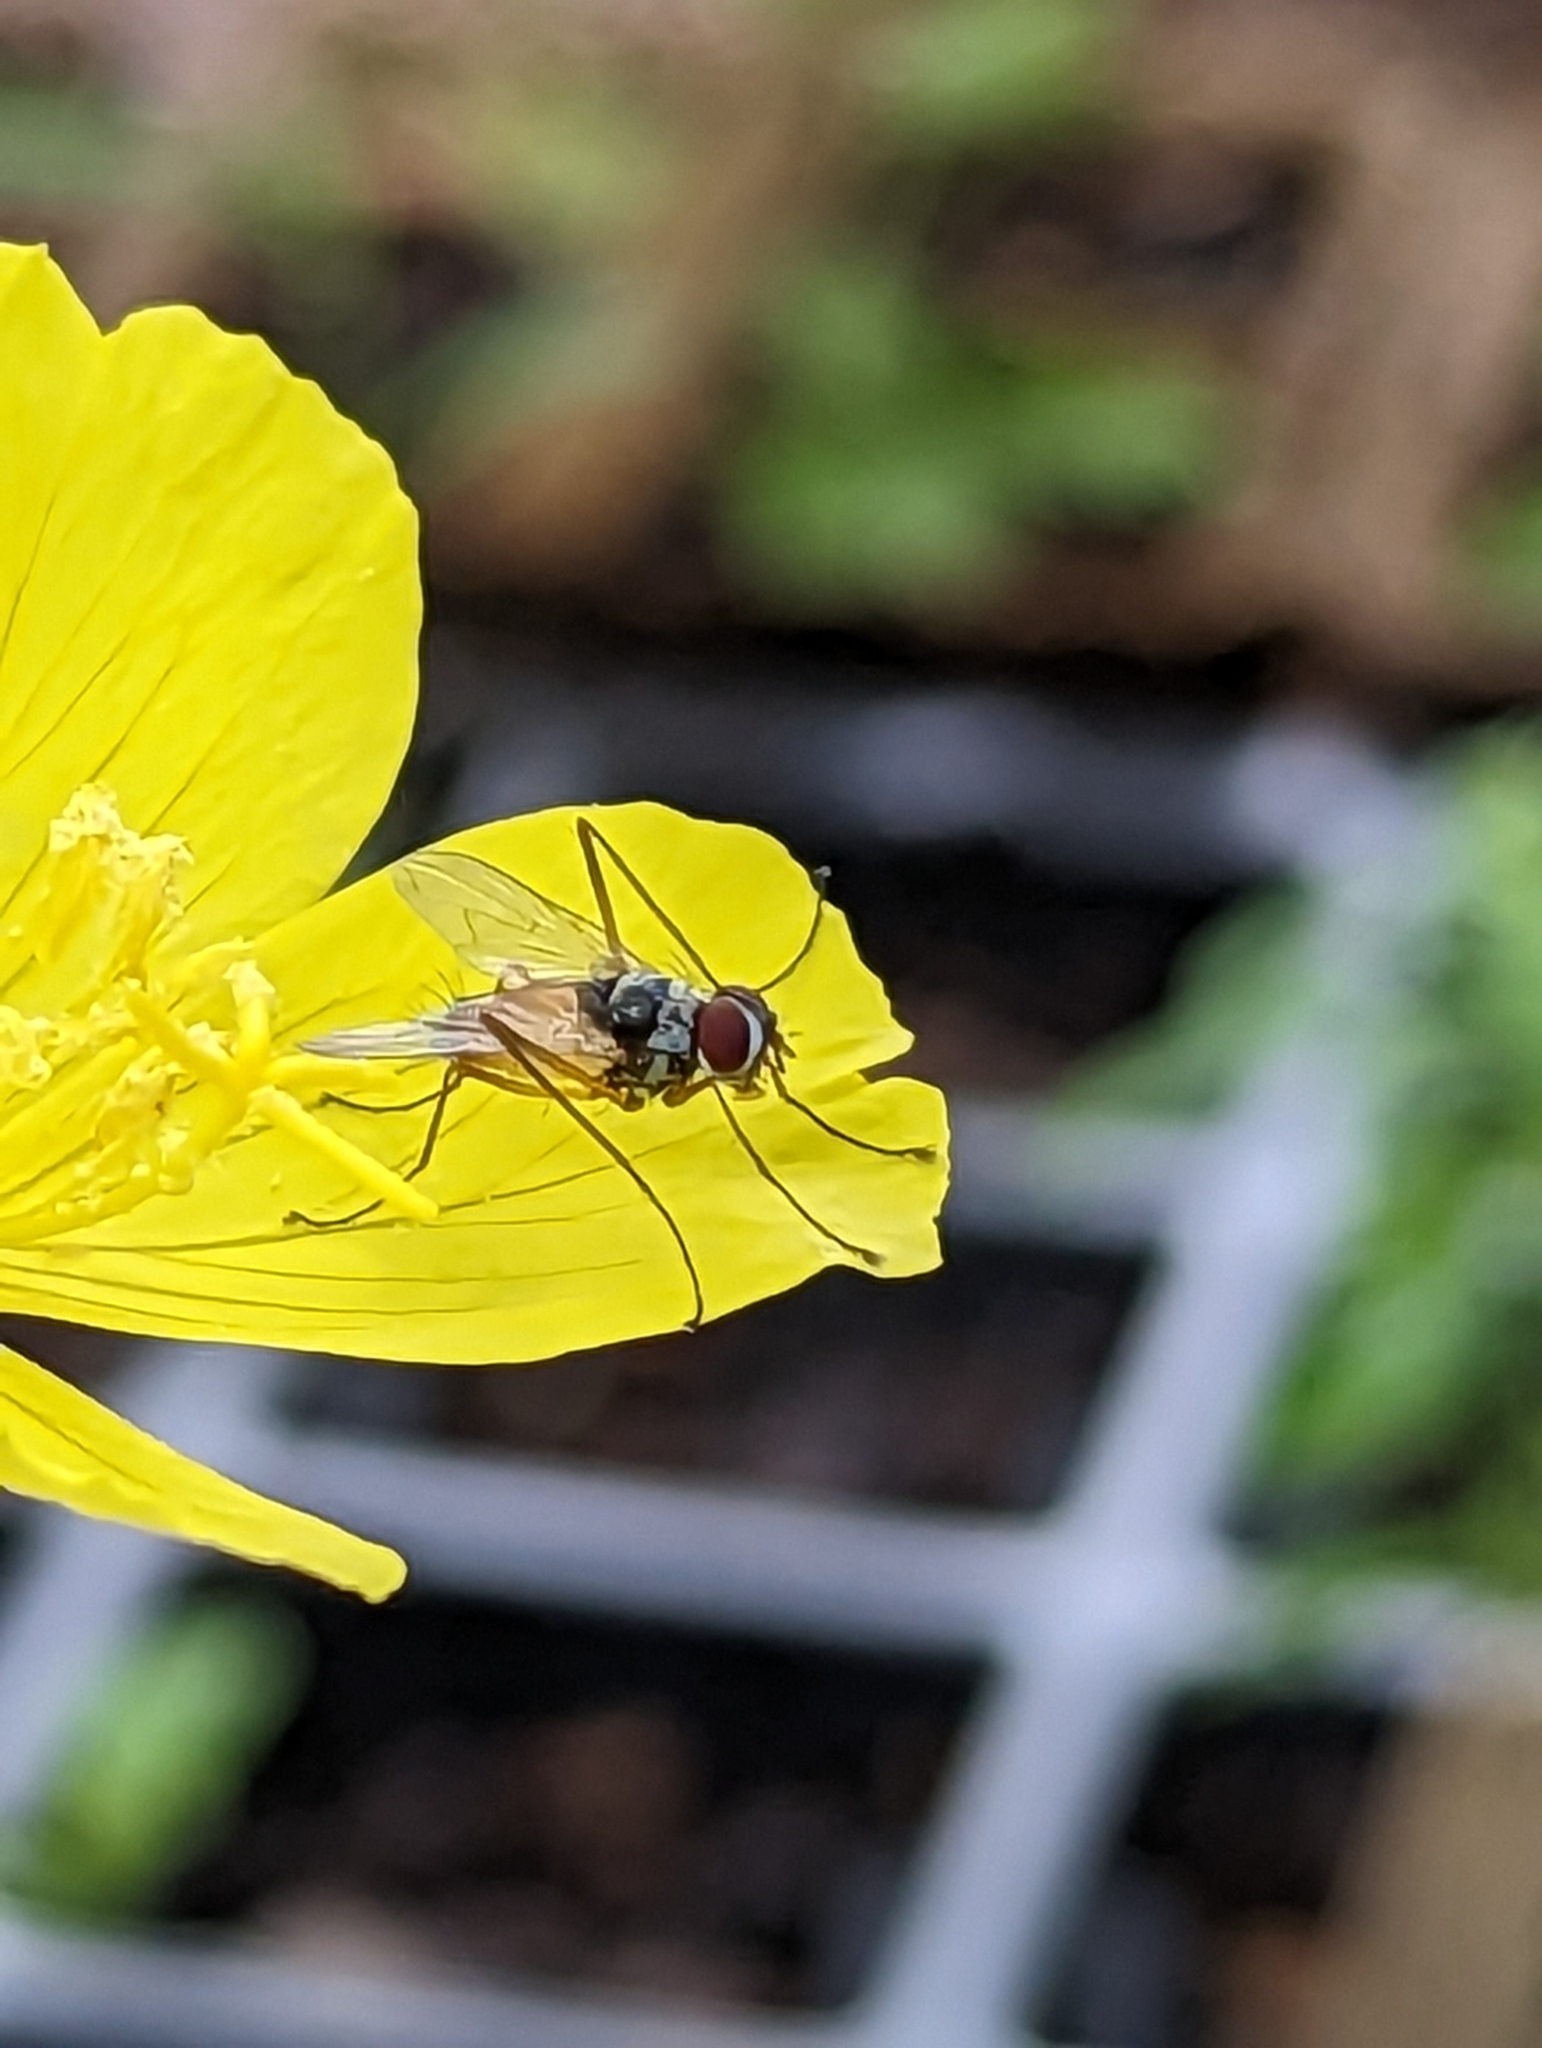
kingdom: Animalia
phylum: Arthropoda
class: Insecta
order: Diptera
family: Tachinidae
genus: Cholomyia
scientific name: Cholomyia inaequipes
